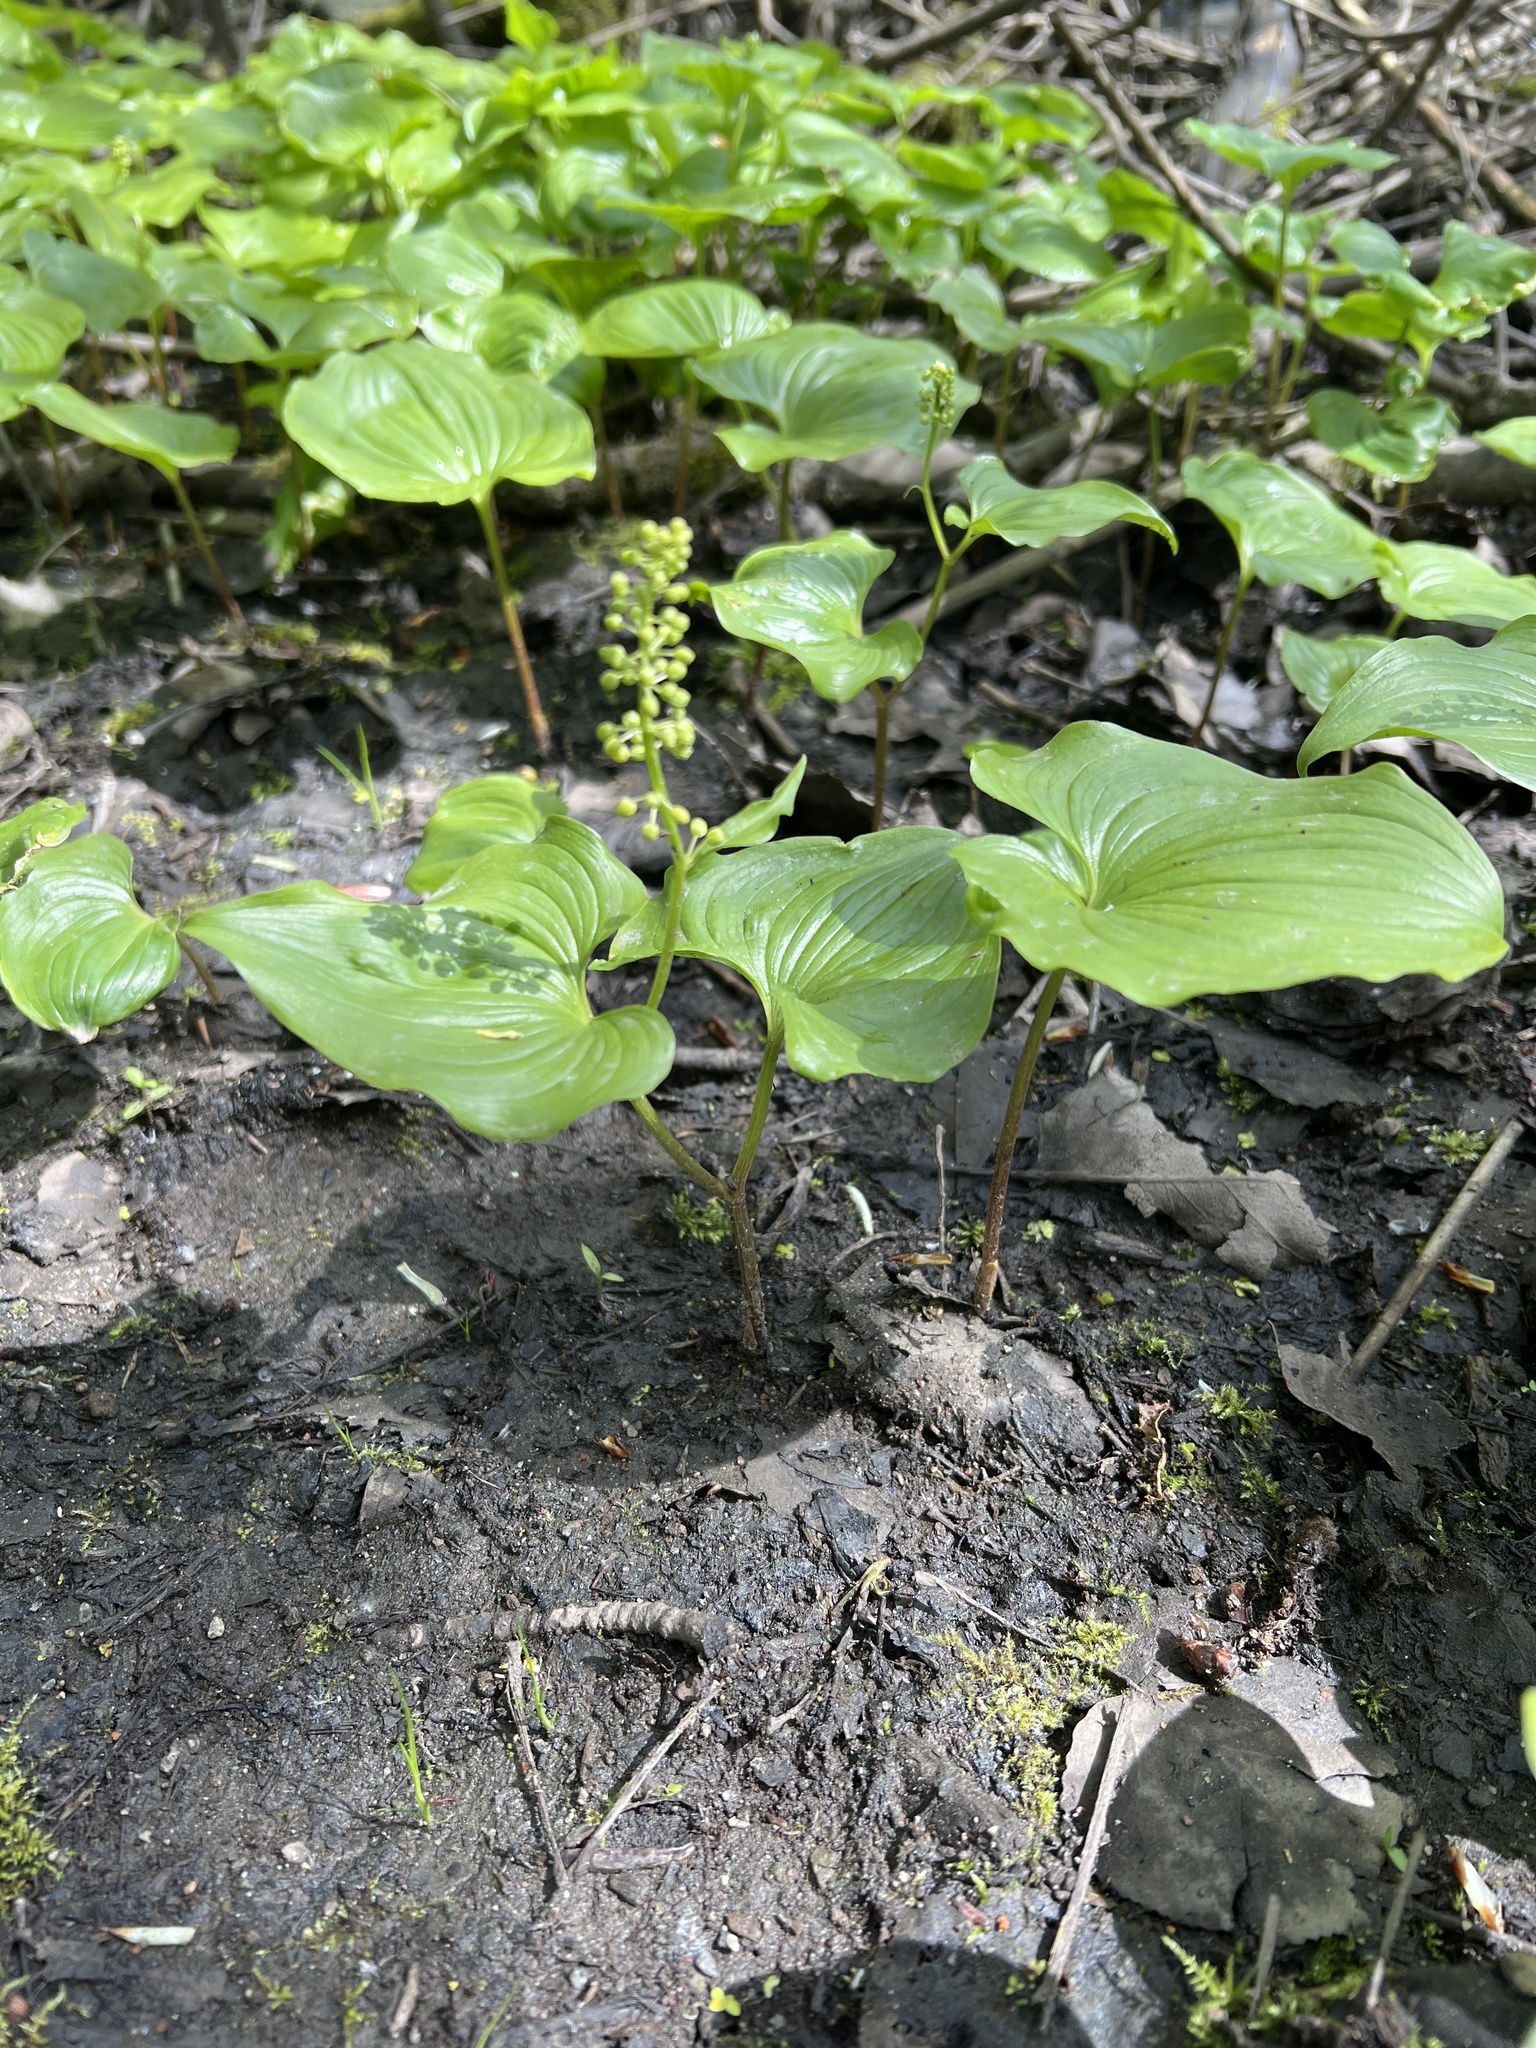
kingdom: Plantae
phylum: Tracheophyta
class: Liliopsida
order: Asparagales
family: Asparagaceae
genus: Maianthemum
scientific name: Maianthemum dilatatum
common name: False lily-of-the-valley
